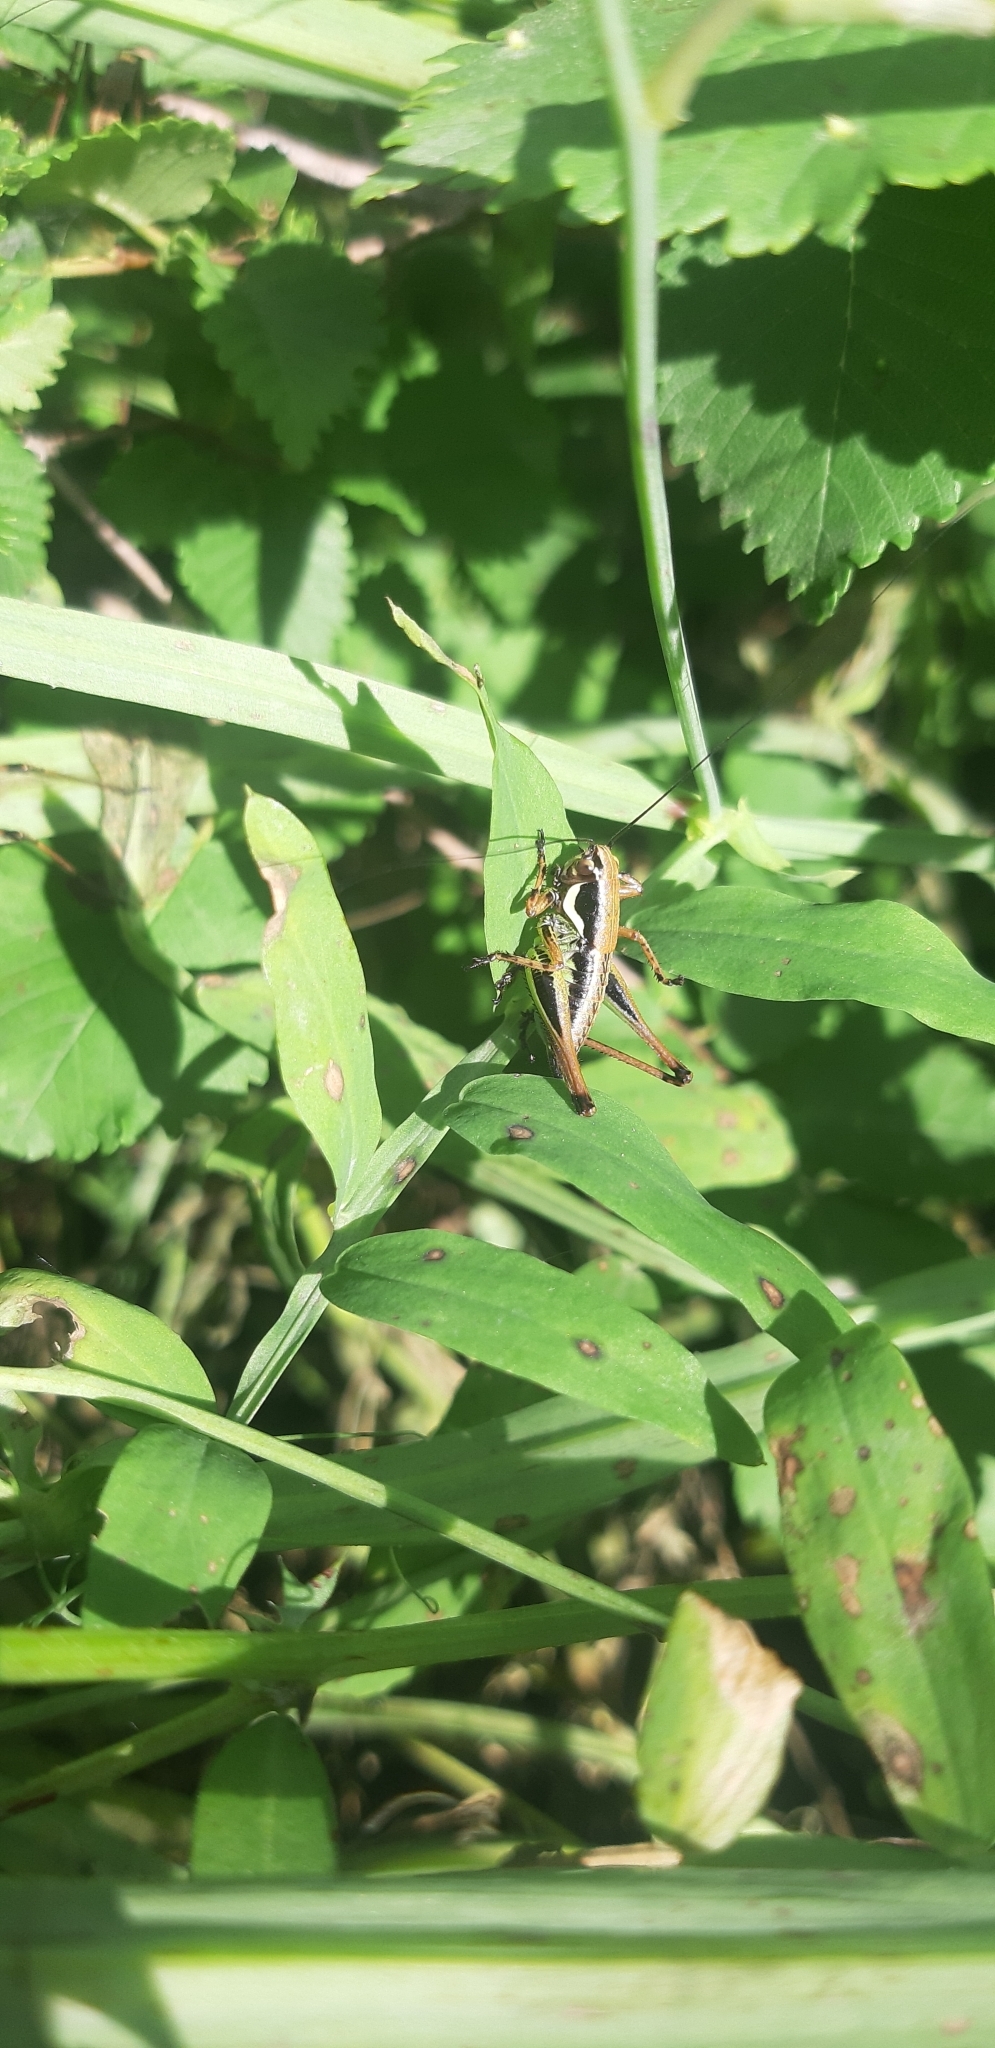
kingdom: Animalia
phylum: Arthropoda
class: Insecta
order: Orthoptera
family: Tettigoniidae
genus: Eupholidoptera
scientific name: Eupholidoptera magnifica
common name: Splendid marbled bush-cricket
